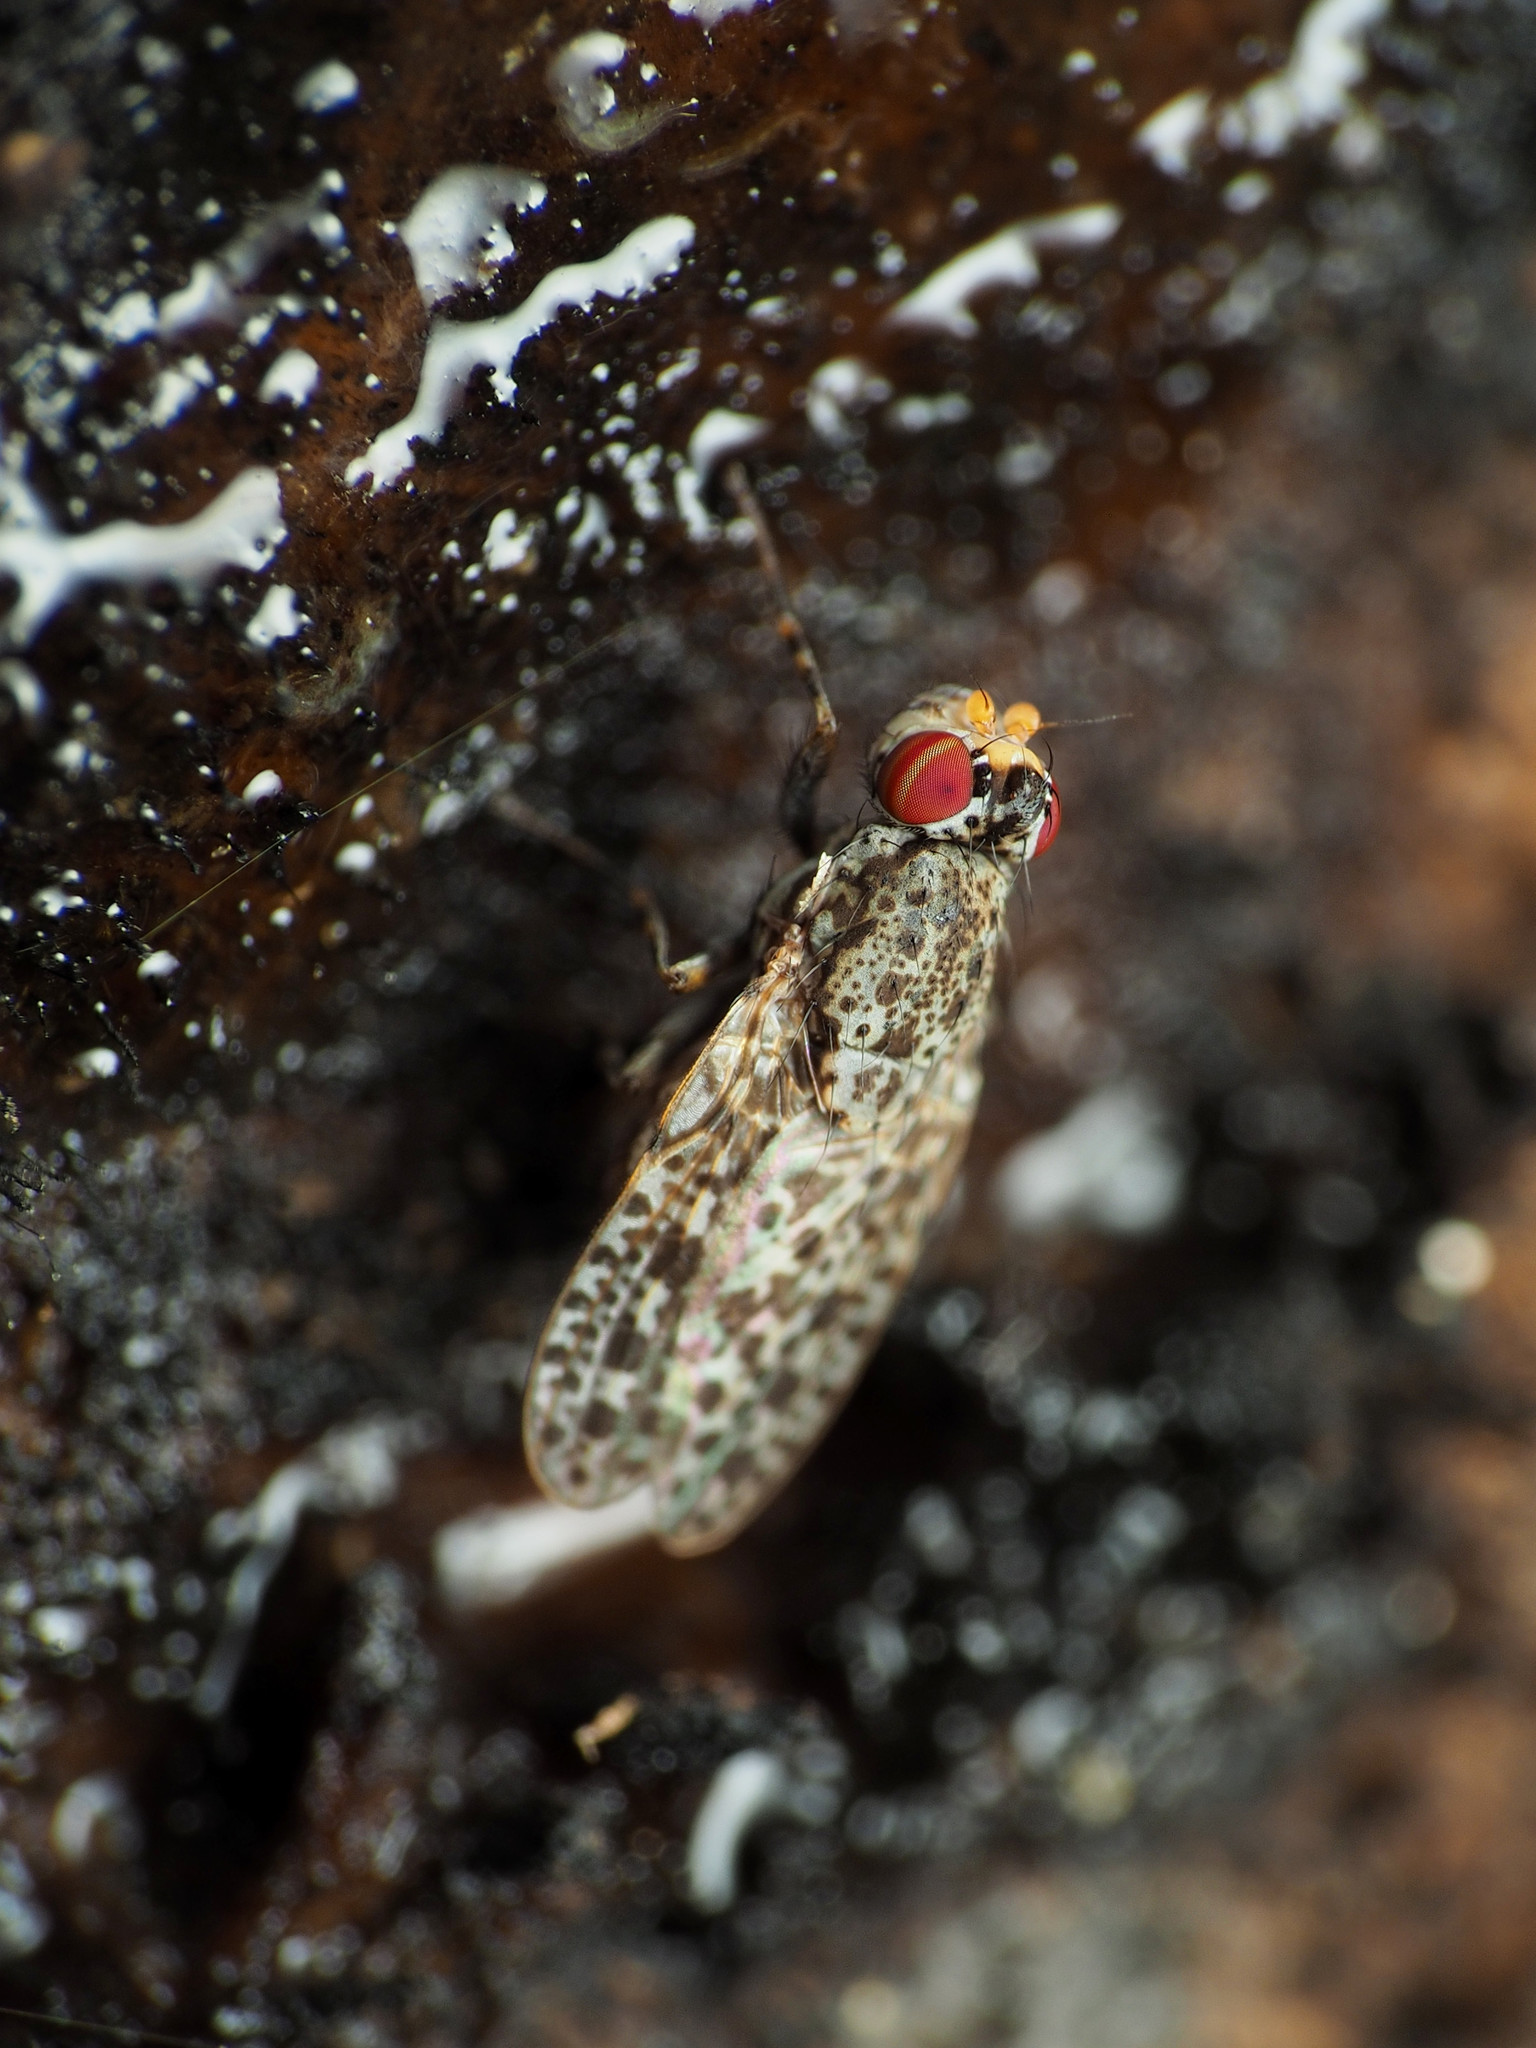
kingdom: Animalia
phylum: Arthropoda
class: Insecta
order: Diptera
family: Odiniidae
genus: Traginops
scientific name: Traginops irroratus
